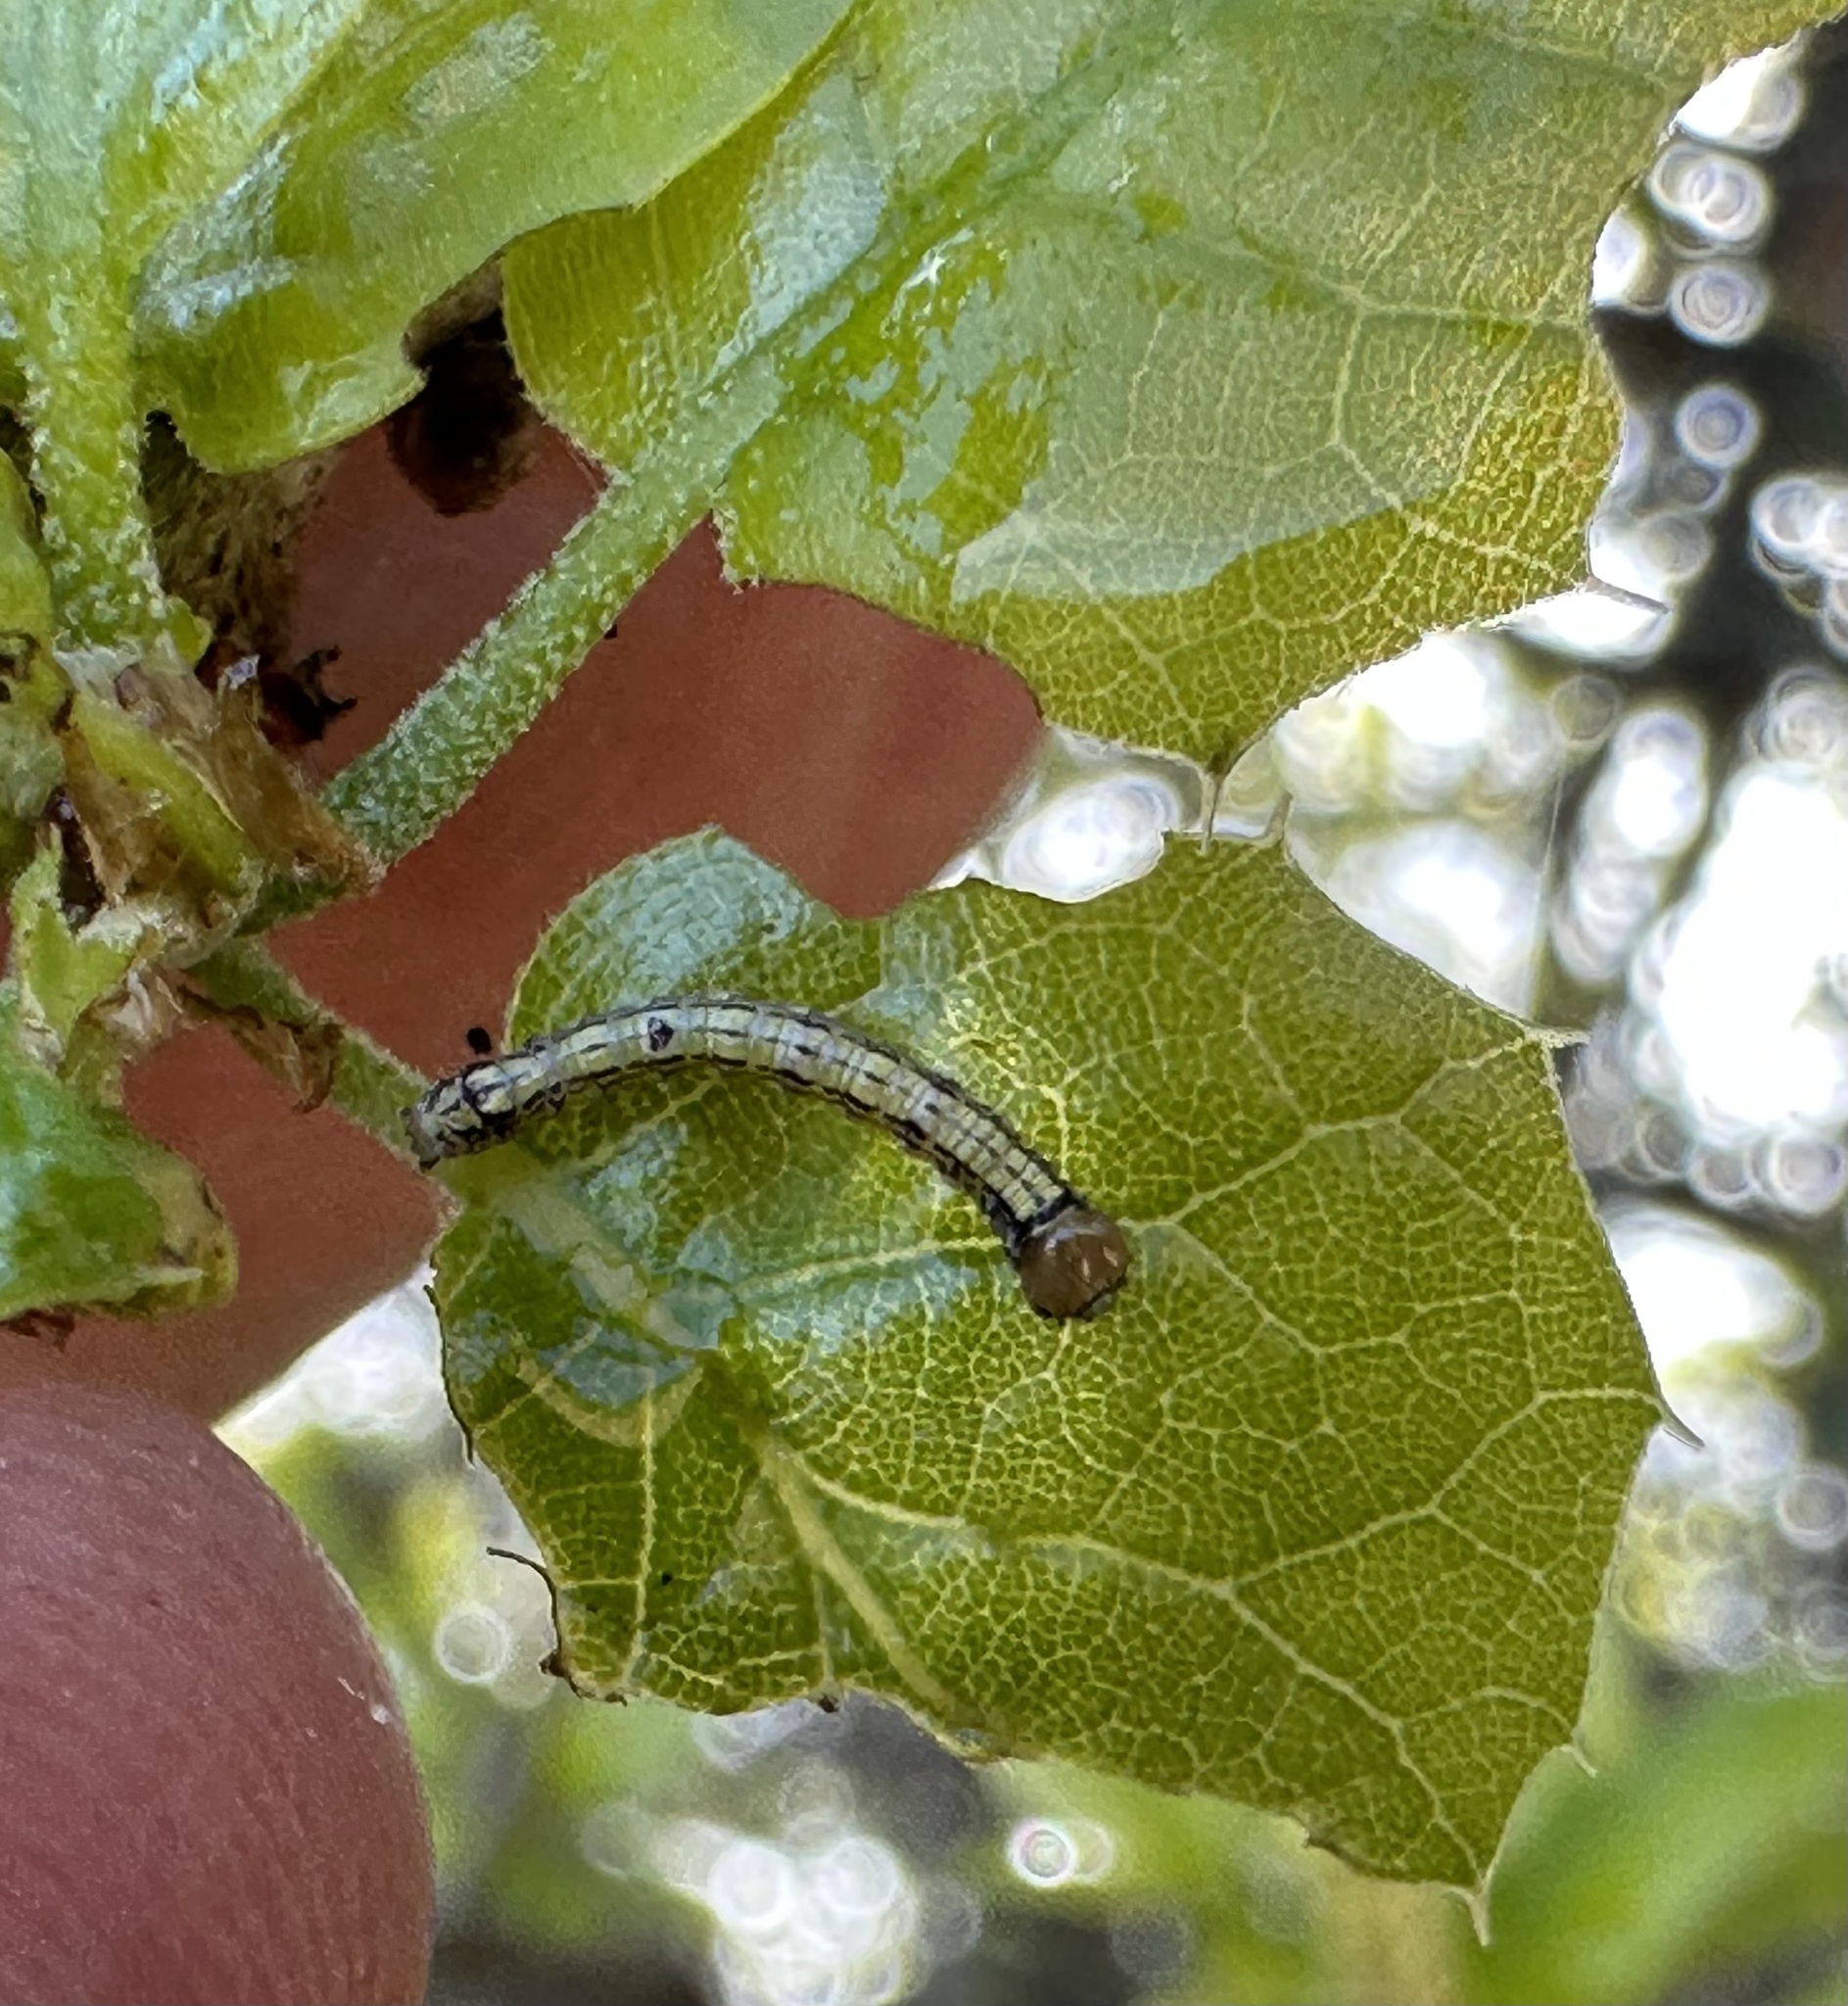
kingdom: Animalia
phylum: Arthropoda
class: Insecta
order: Lepidoptera
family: Notodontidae
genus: Phryganidia
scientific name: Phryganidia californica
